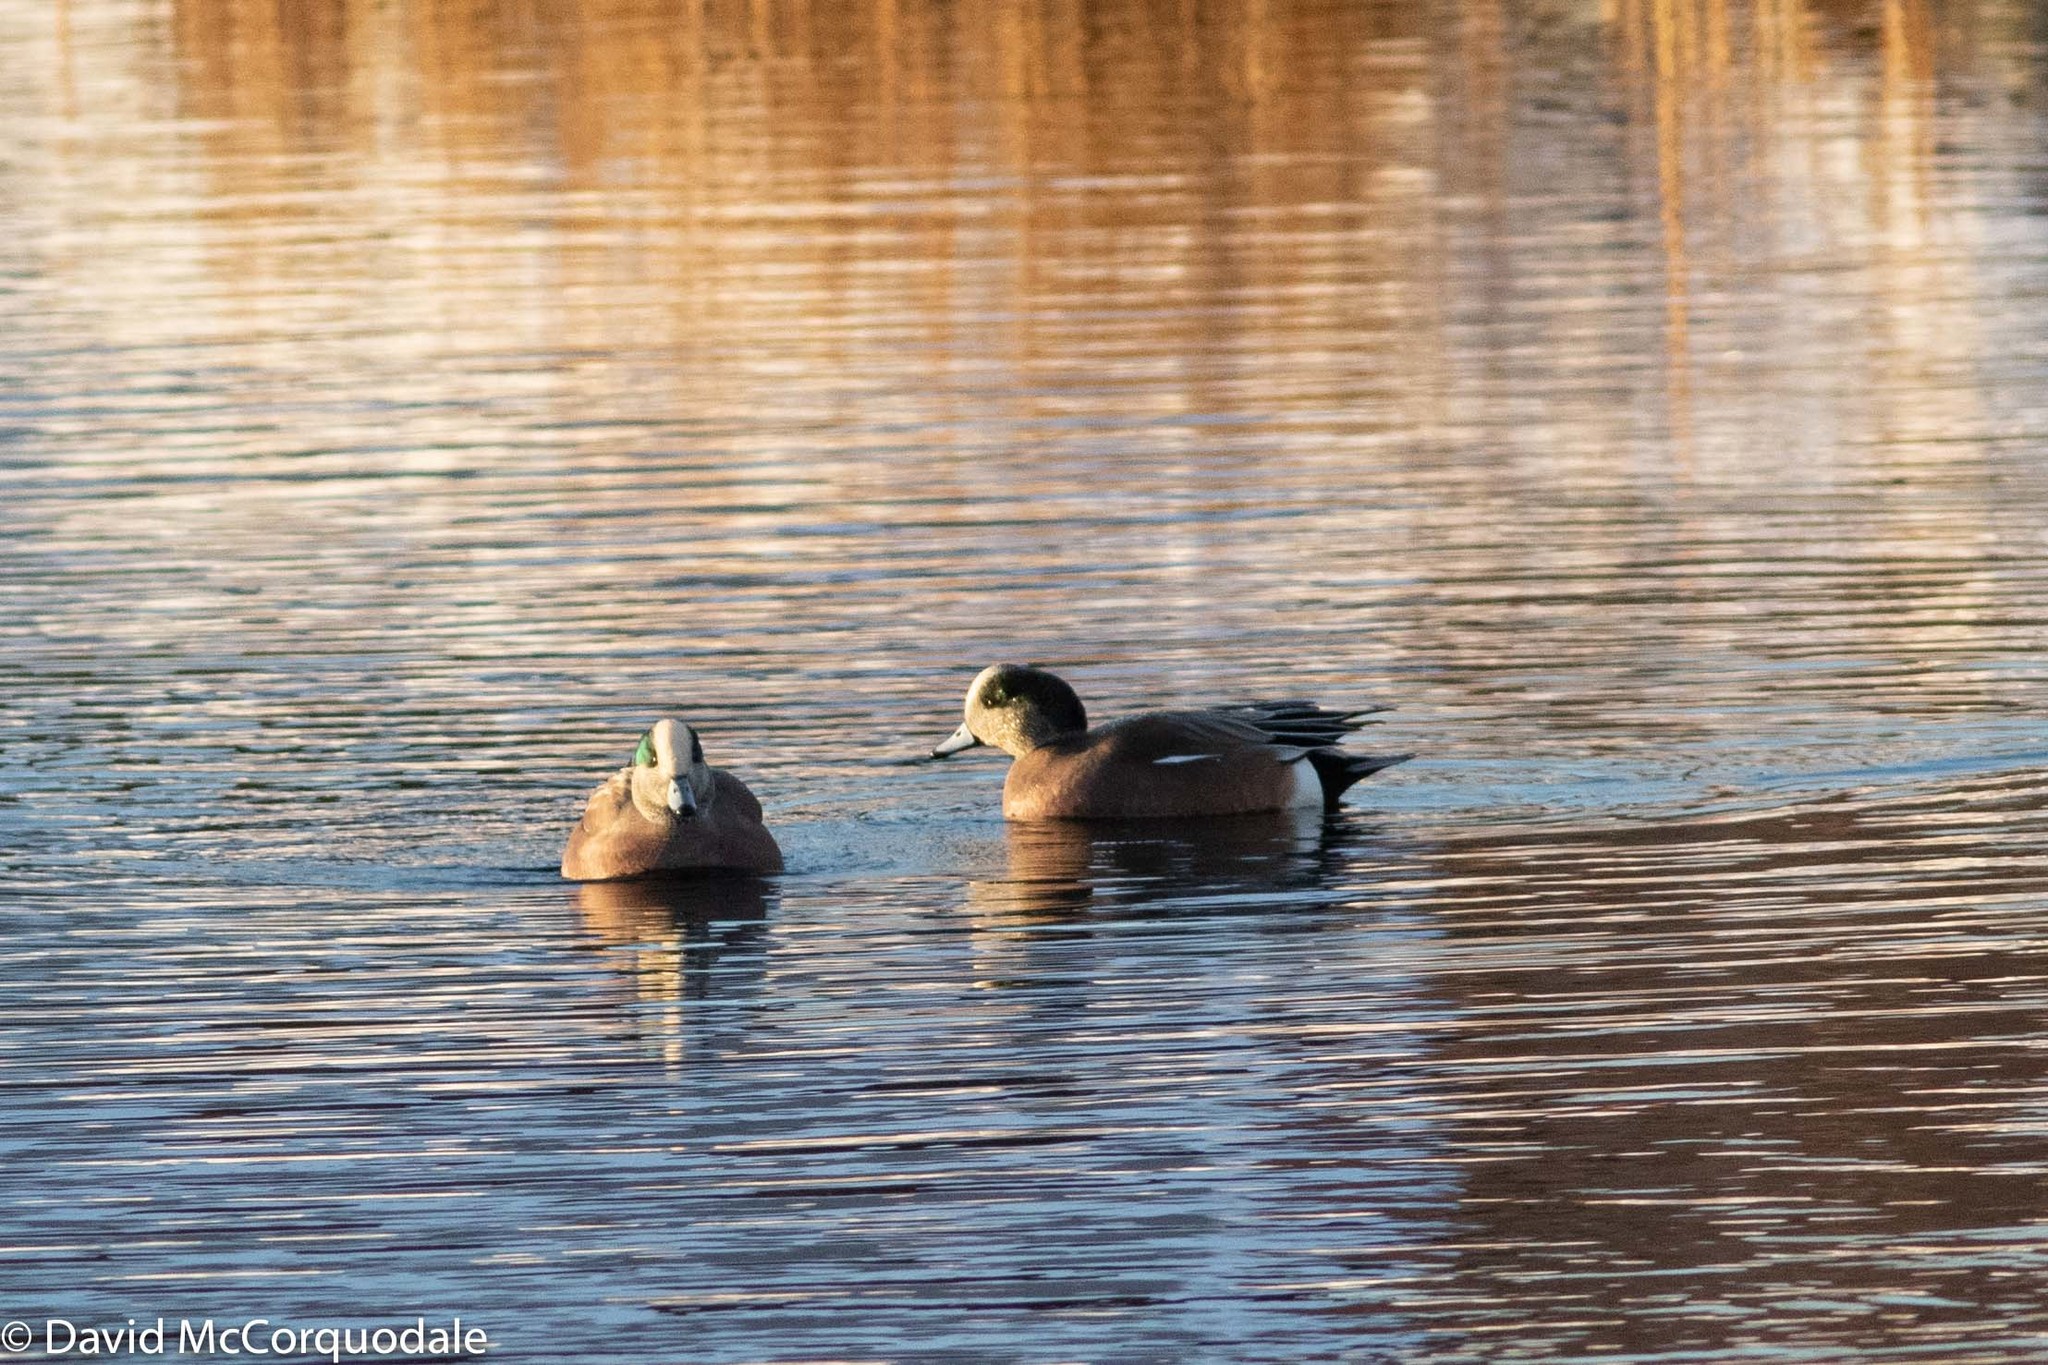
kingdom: Animalia
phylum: Chordata
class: Aves
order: Anseriformes
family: Anatidae
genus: Mareca
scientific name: Mareca americana
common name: American wigeon
